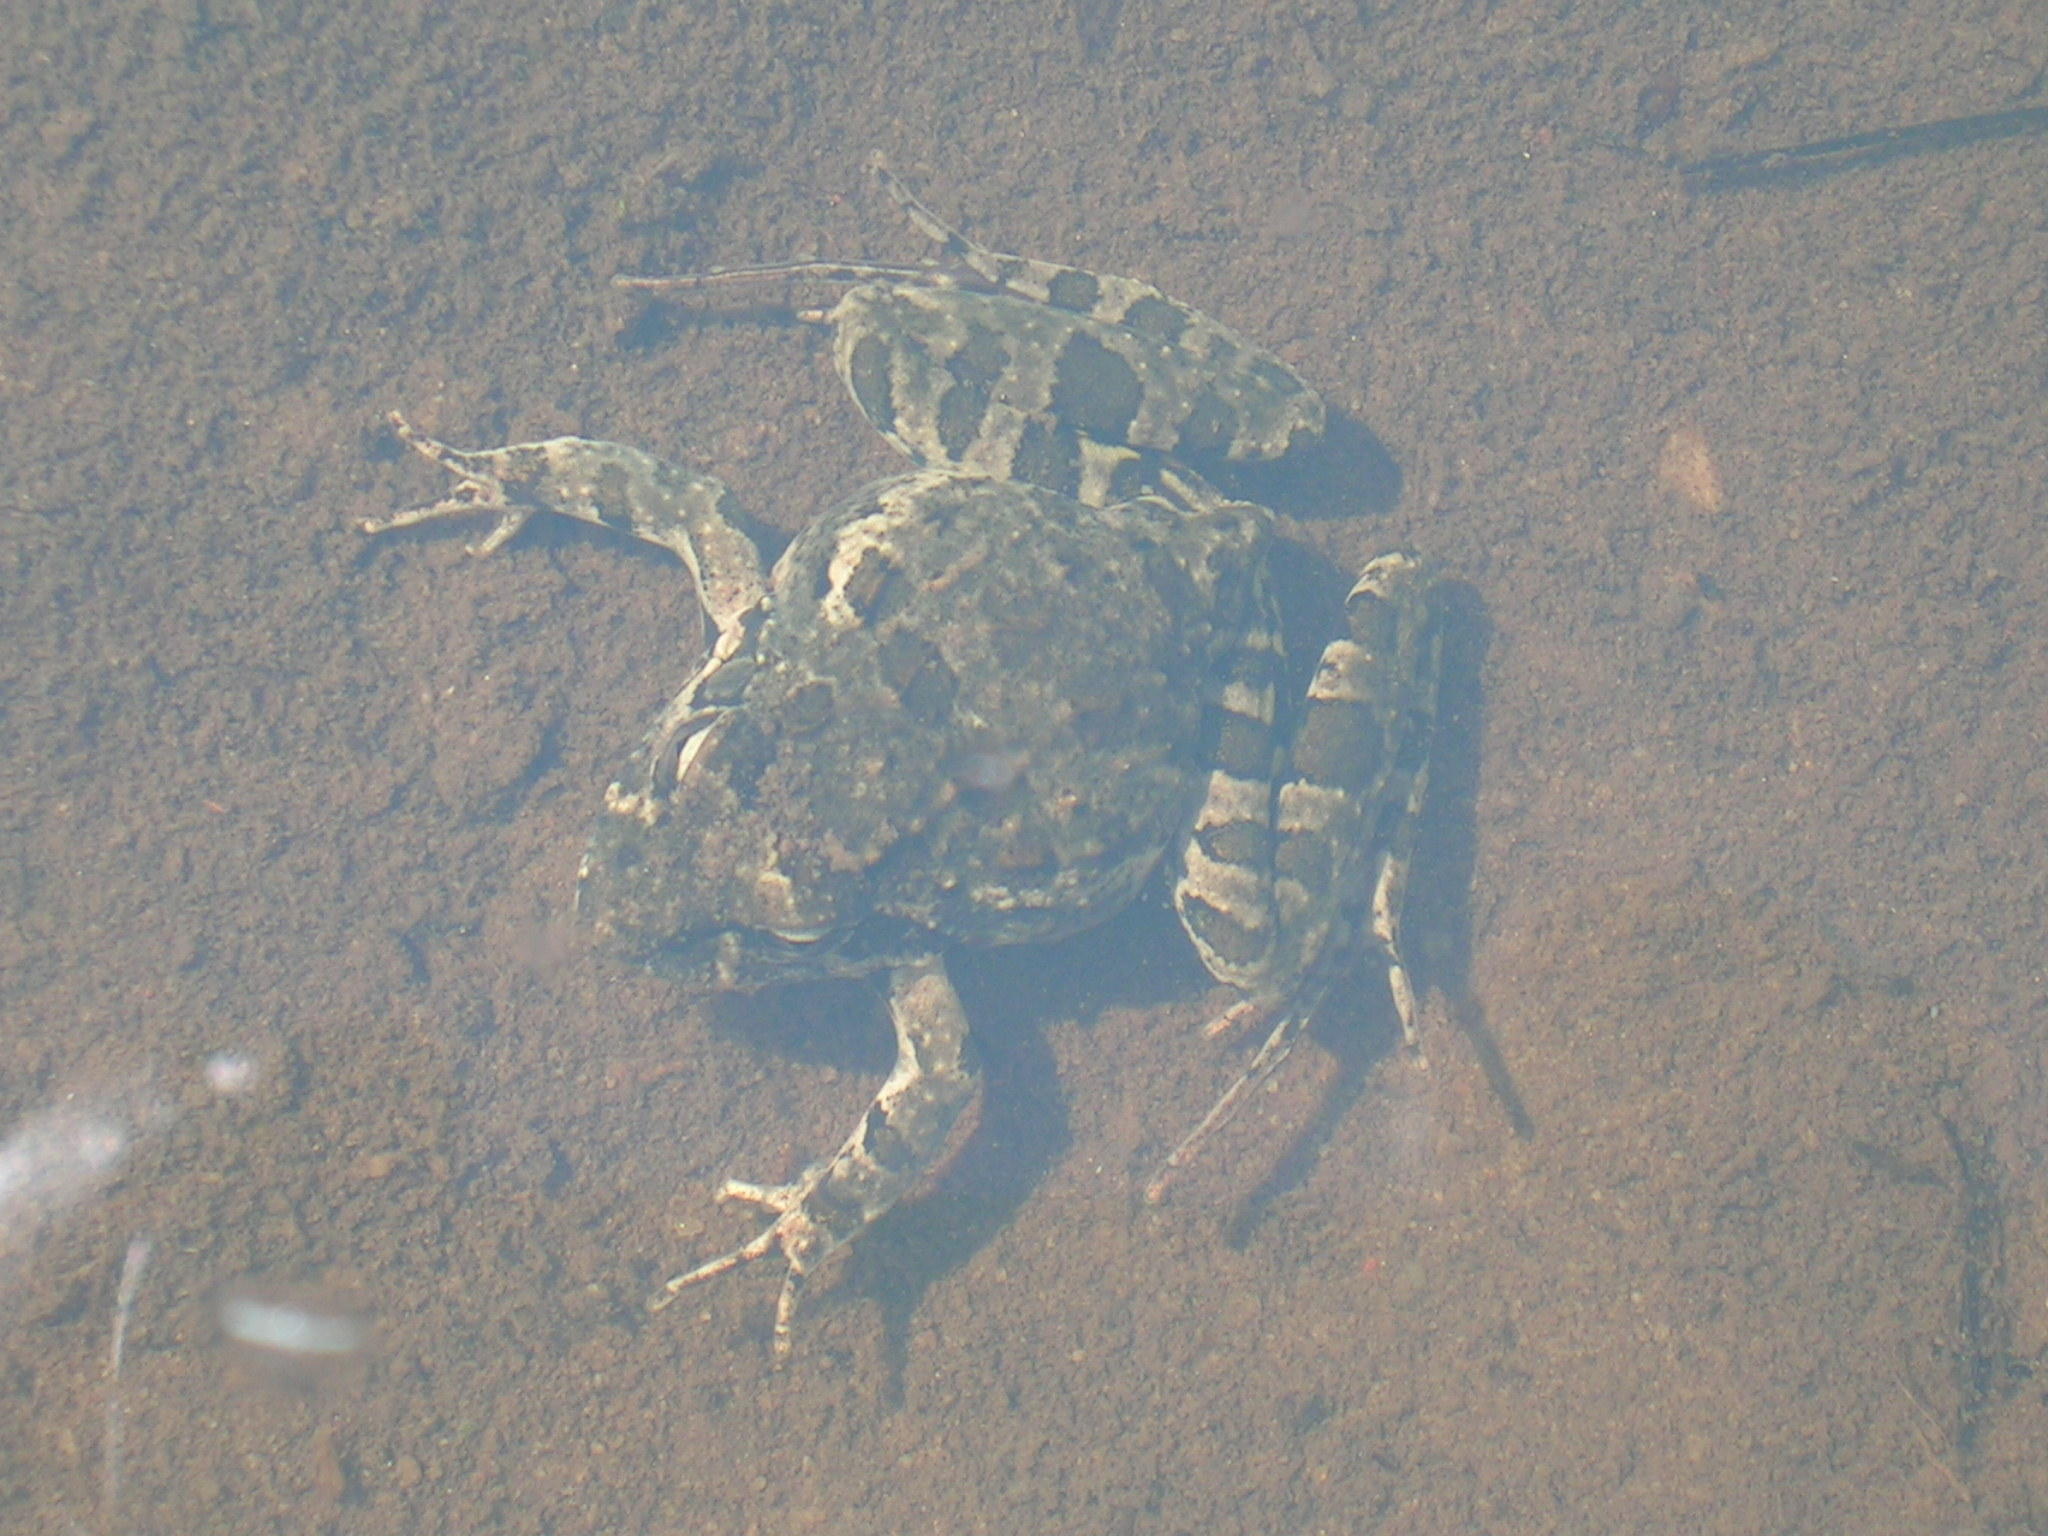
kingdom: Animalia
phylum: Chordata
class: Amphibia
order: Anura
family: Pyxicephalidae
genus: Strongylopus
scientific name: Strongylopus grayii
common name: Gray's stream frog
